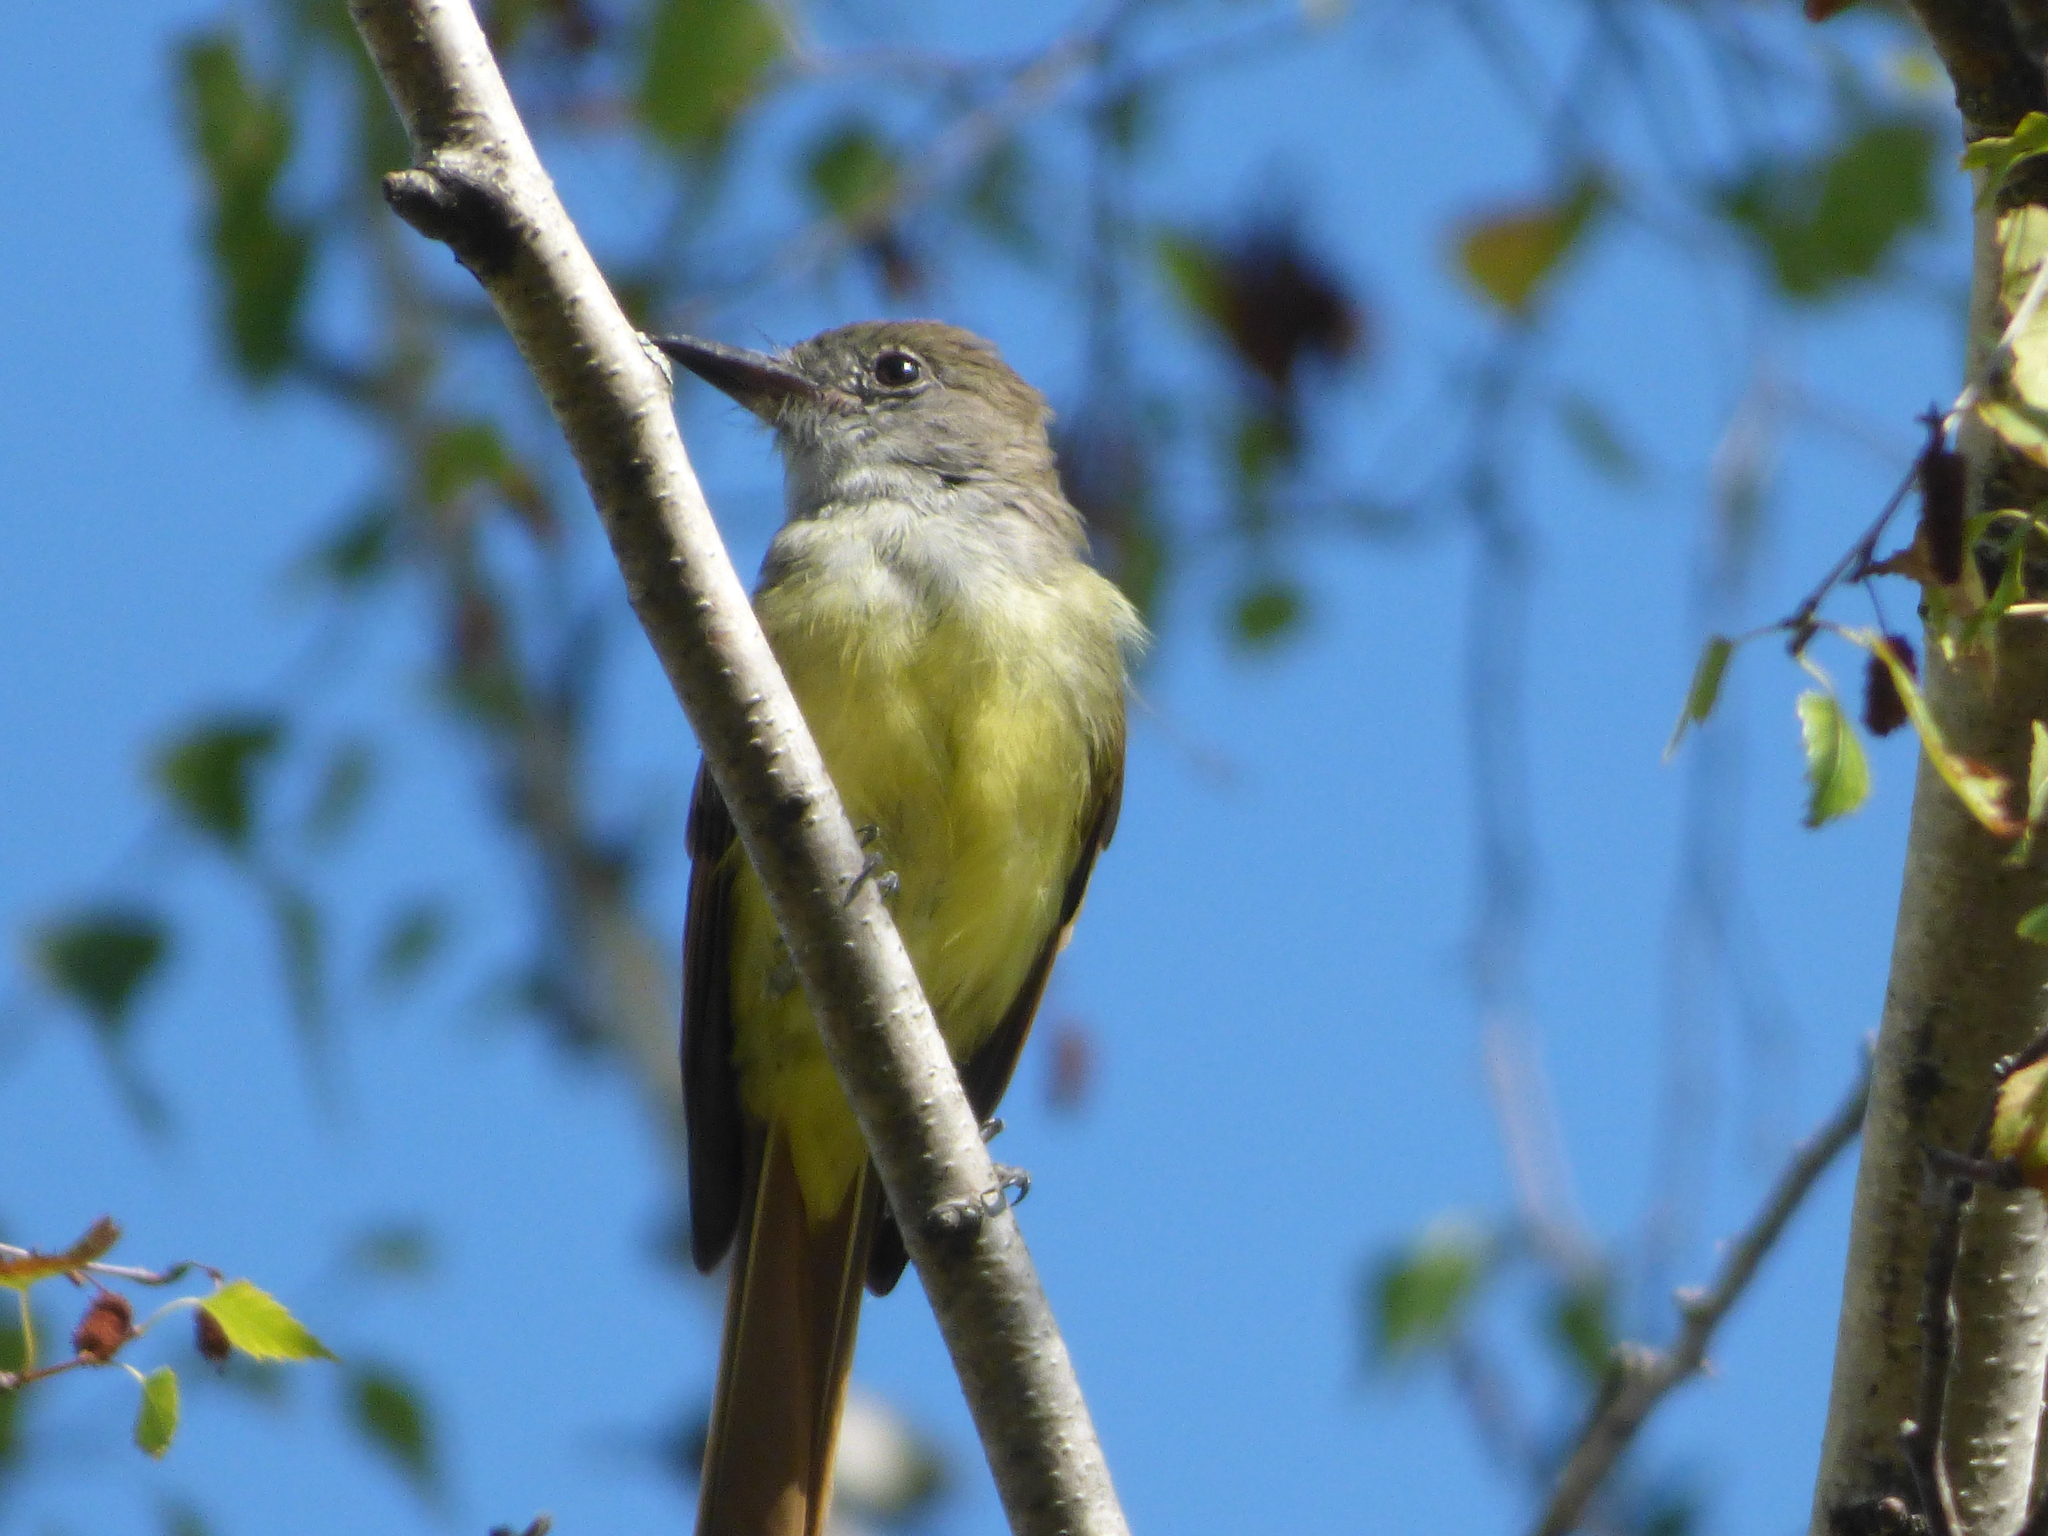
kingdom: Animalia
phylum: Chordata
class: Aves
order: Passeriformes
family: Tyrannidae
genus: Myiarchus
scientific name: Myiarchus crinitus
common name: Great crested flycatcher
